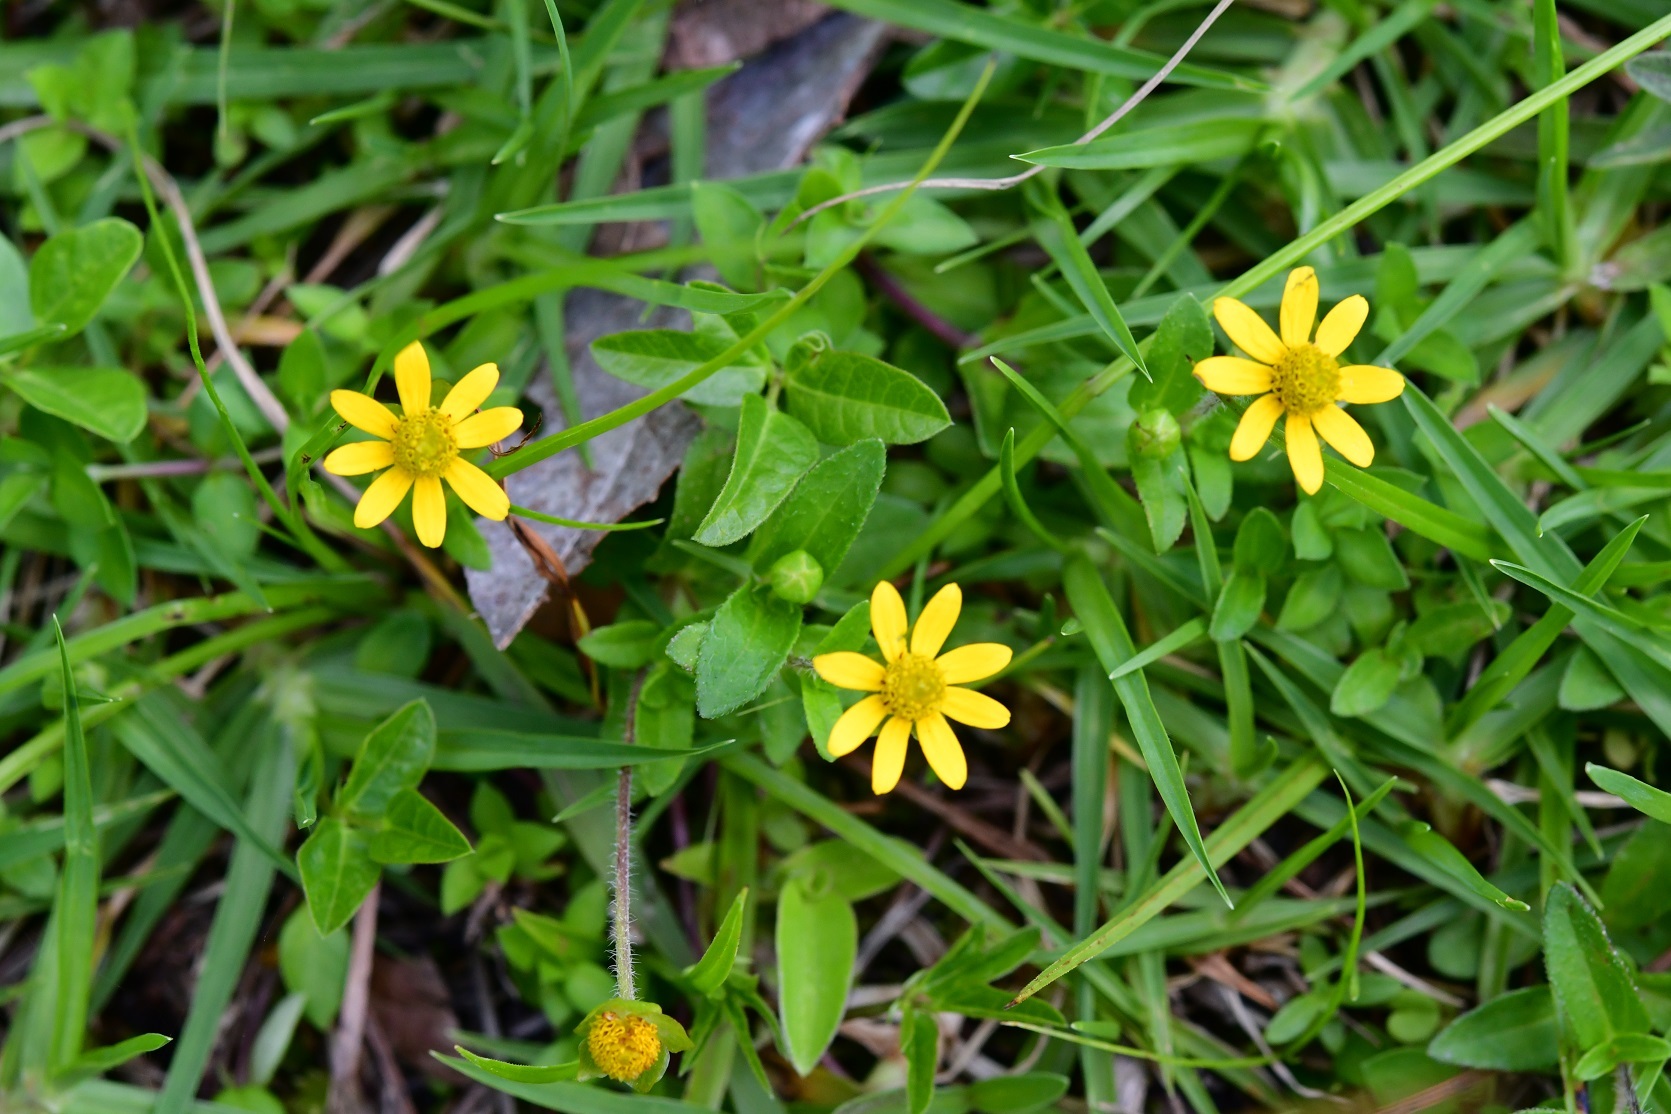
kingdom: Plantae
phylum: Tracheophyta
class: Magnoliopsida
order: Asterales
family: Asteraceae
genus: Melampodium
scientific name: Melampodium montanum
